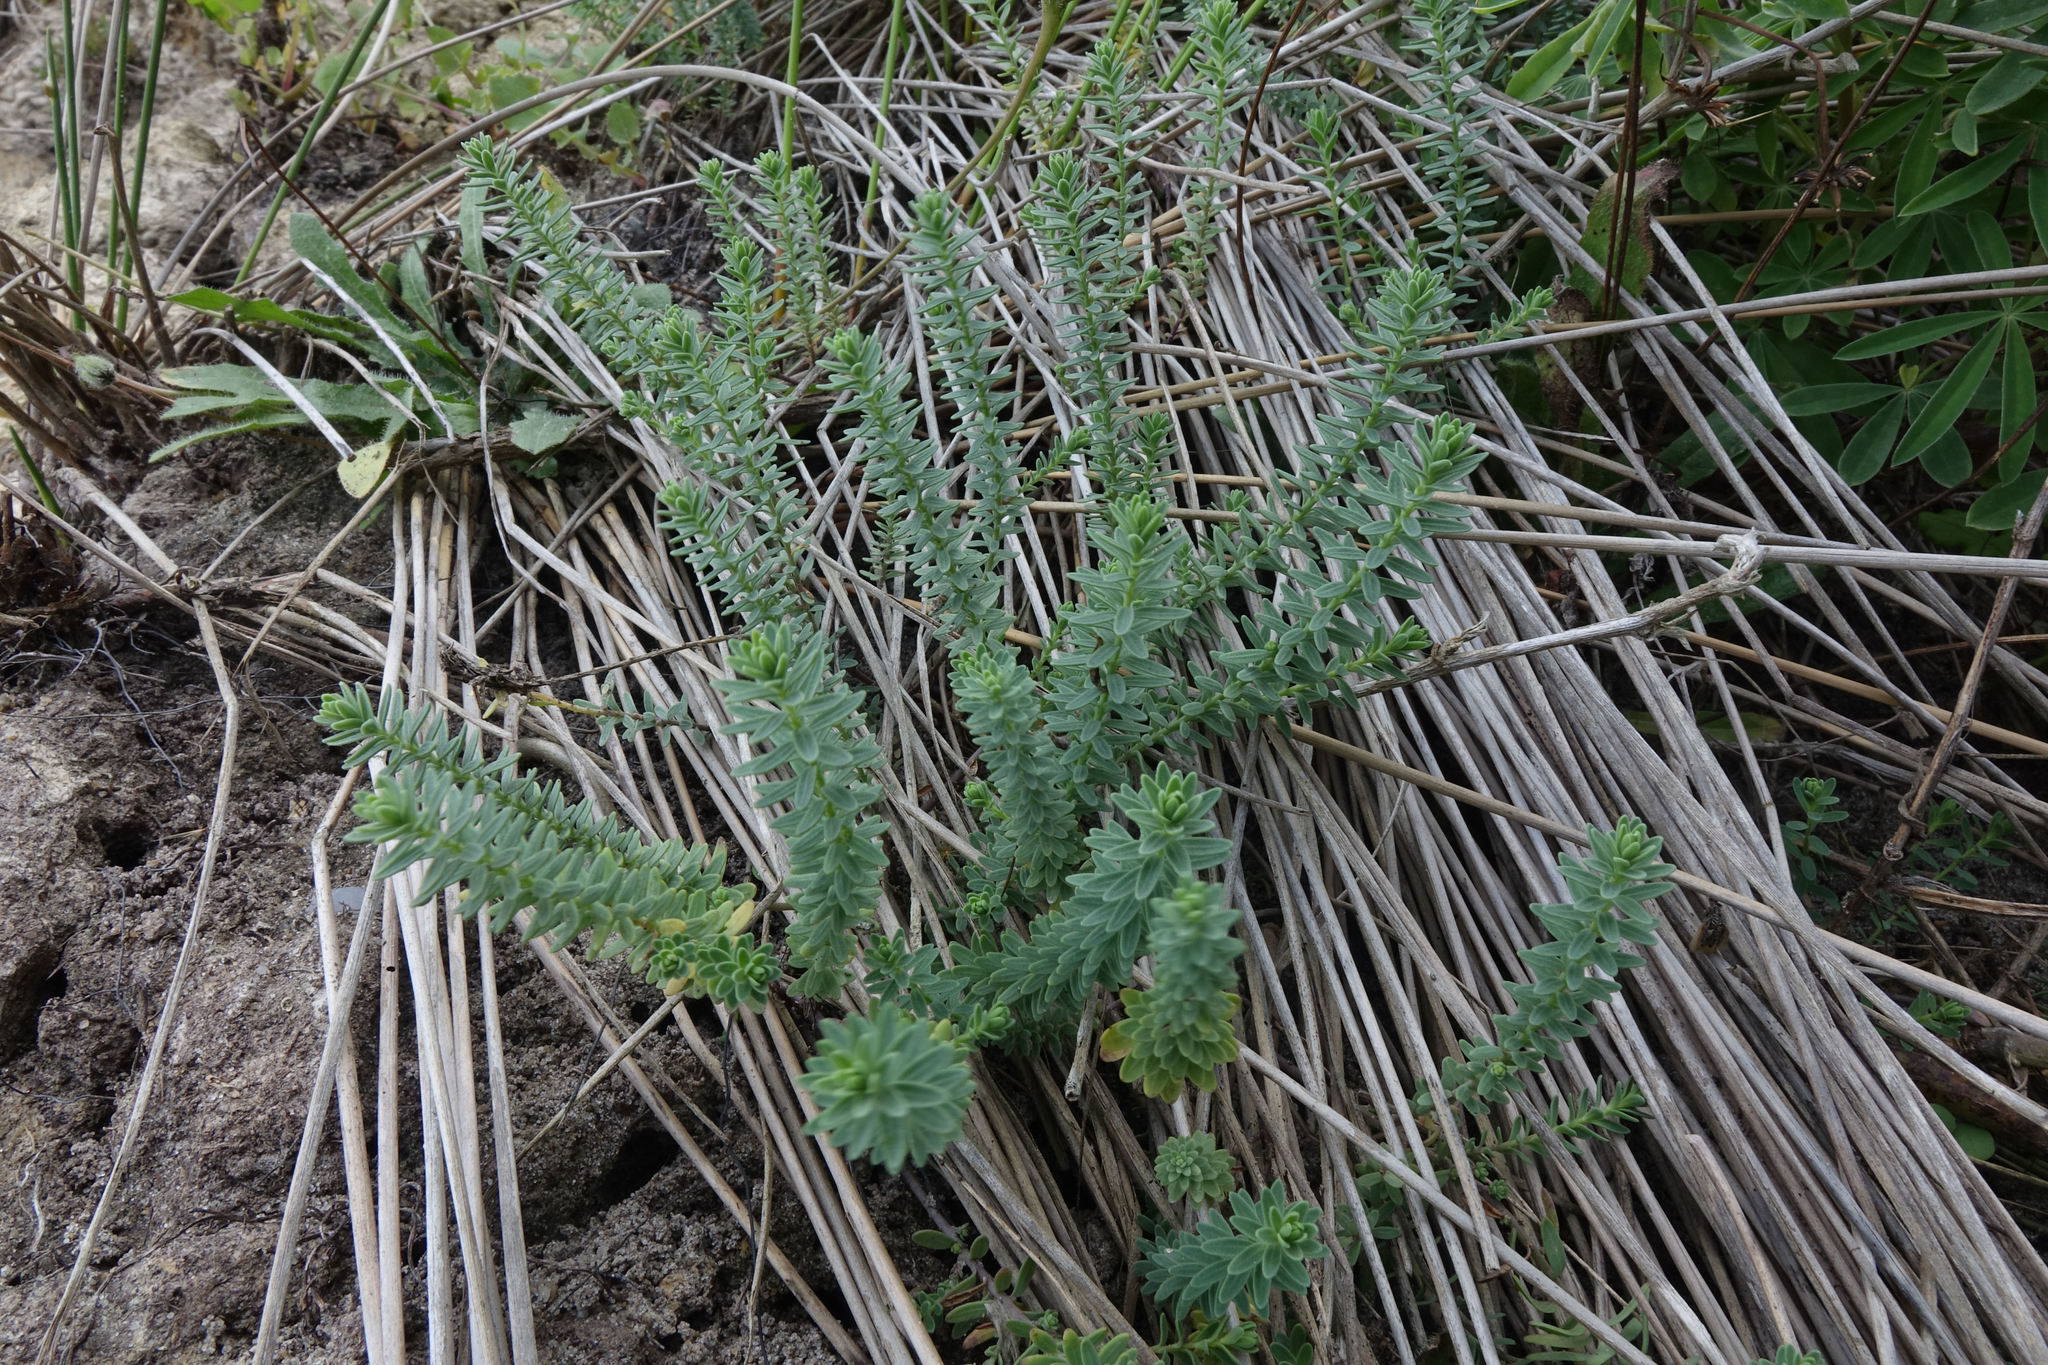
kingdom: Plantae
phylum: Tracheophyta
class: Magnoliopsida
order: Malpighiales
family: Linaceae
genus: Linum
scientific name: Linum monogynum
